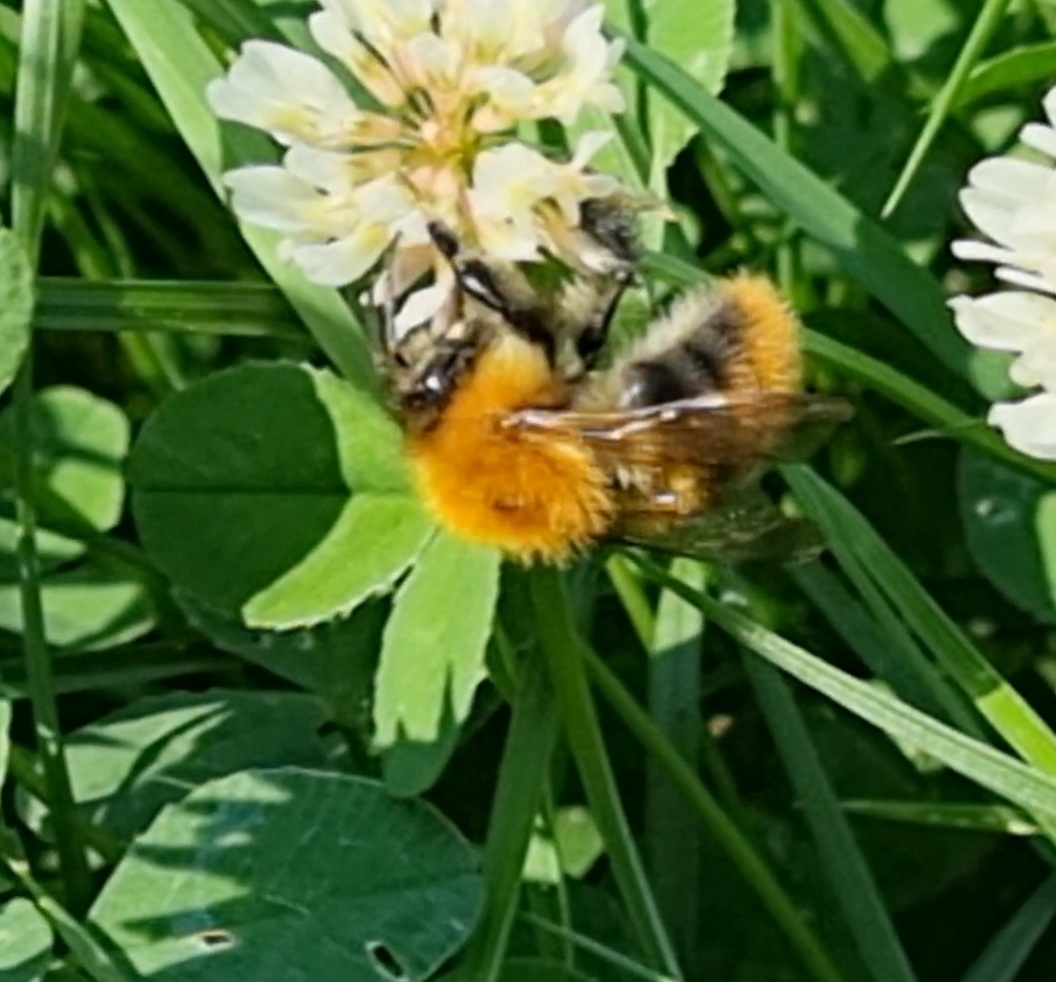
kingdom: Animalia
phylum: Arthropoda
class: Insecta
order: Hymenoptera
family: Apidae
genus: Bombus
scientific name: Bombus pascuorum
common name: Common carder bee
